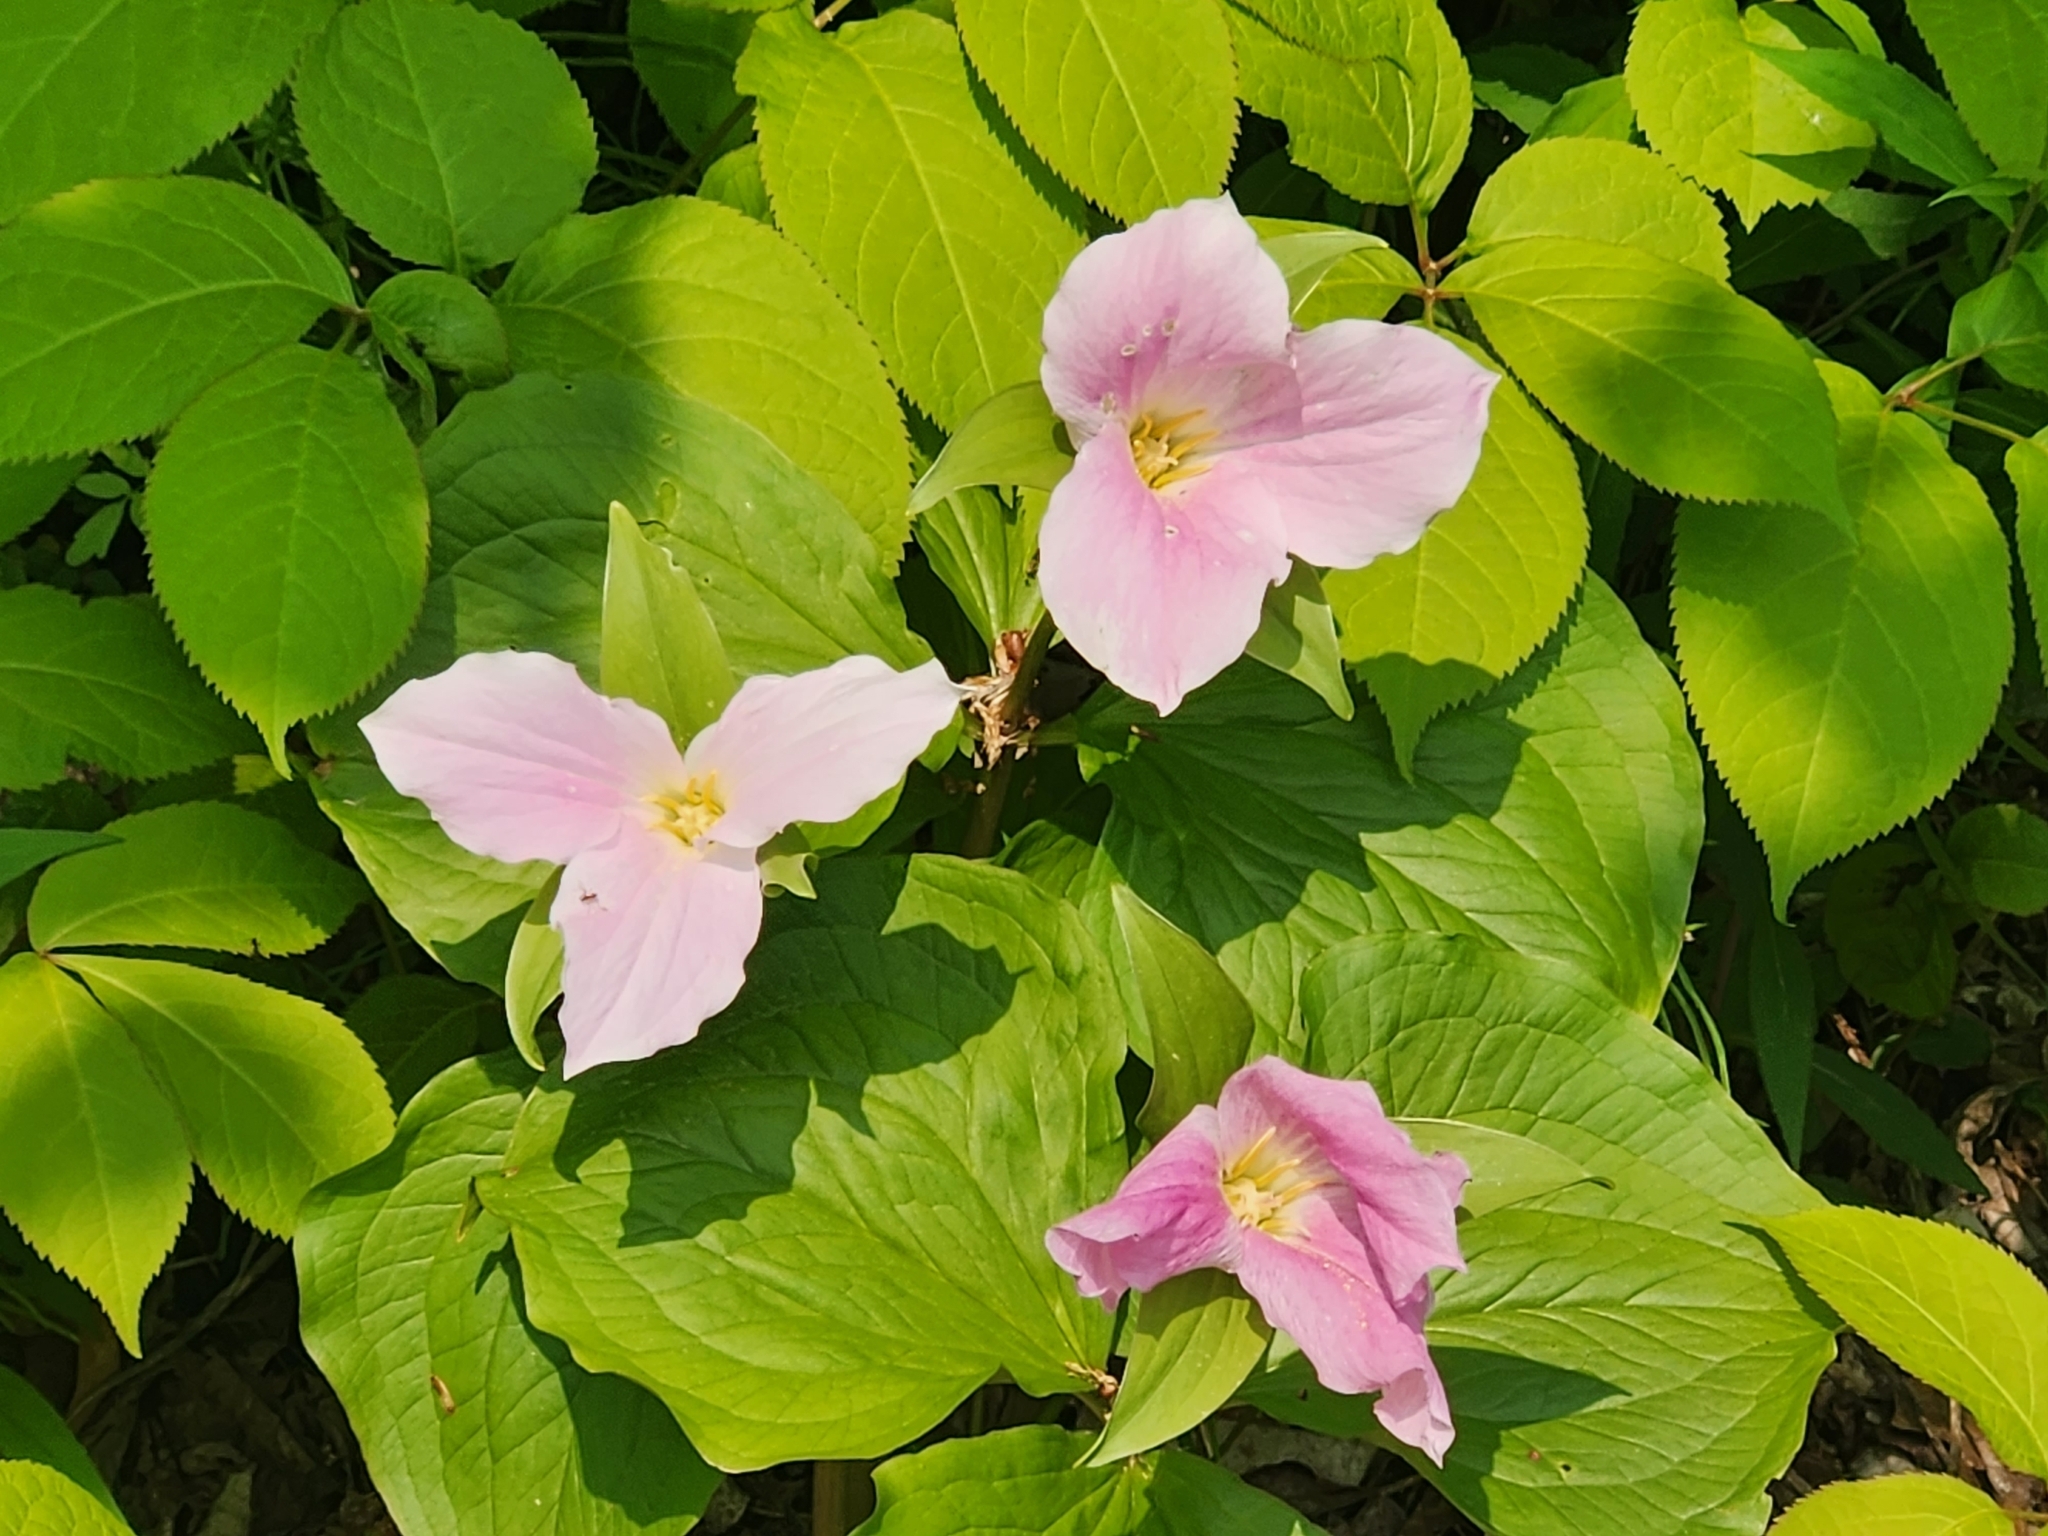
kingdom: Plantae
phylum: Tracheophyta
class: Liliopsida
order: Liliales
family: Melanthiaceae
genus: Trillium
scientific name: Trillium grandiflorum
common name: Great white trillium
